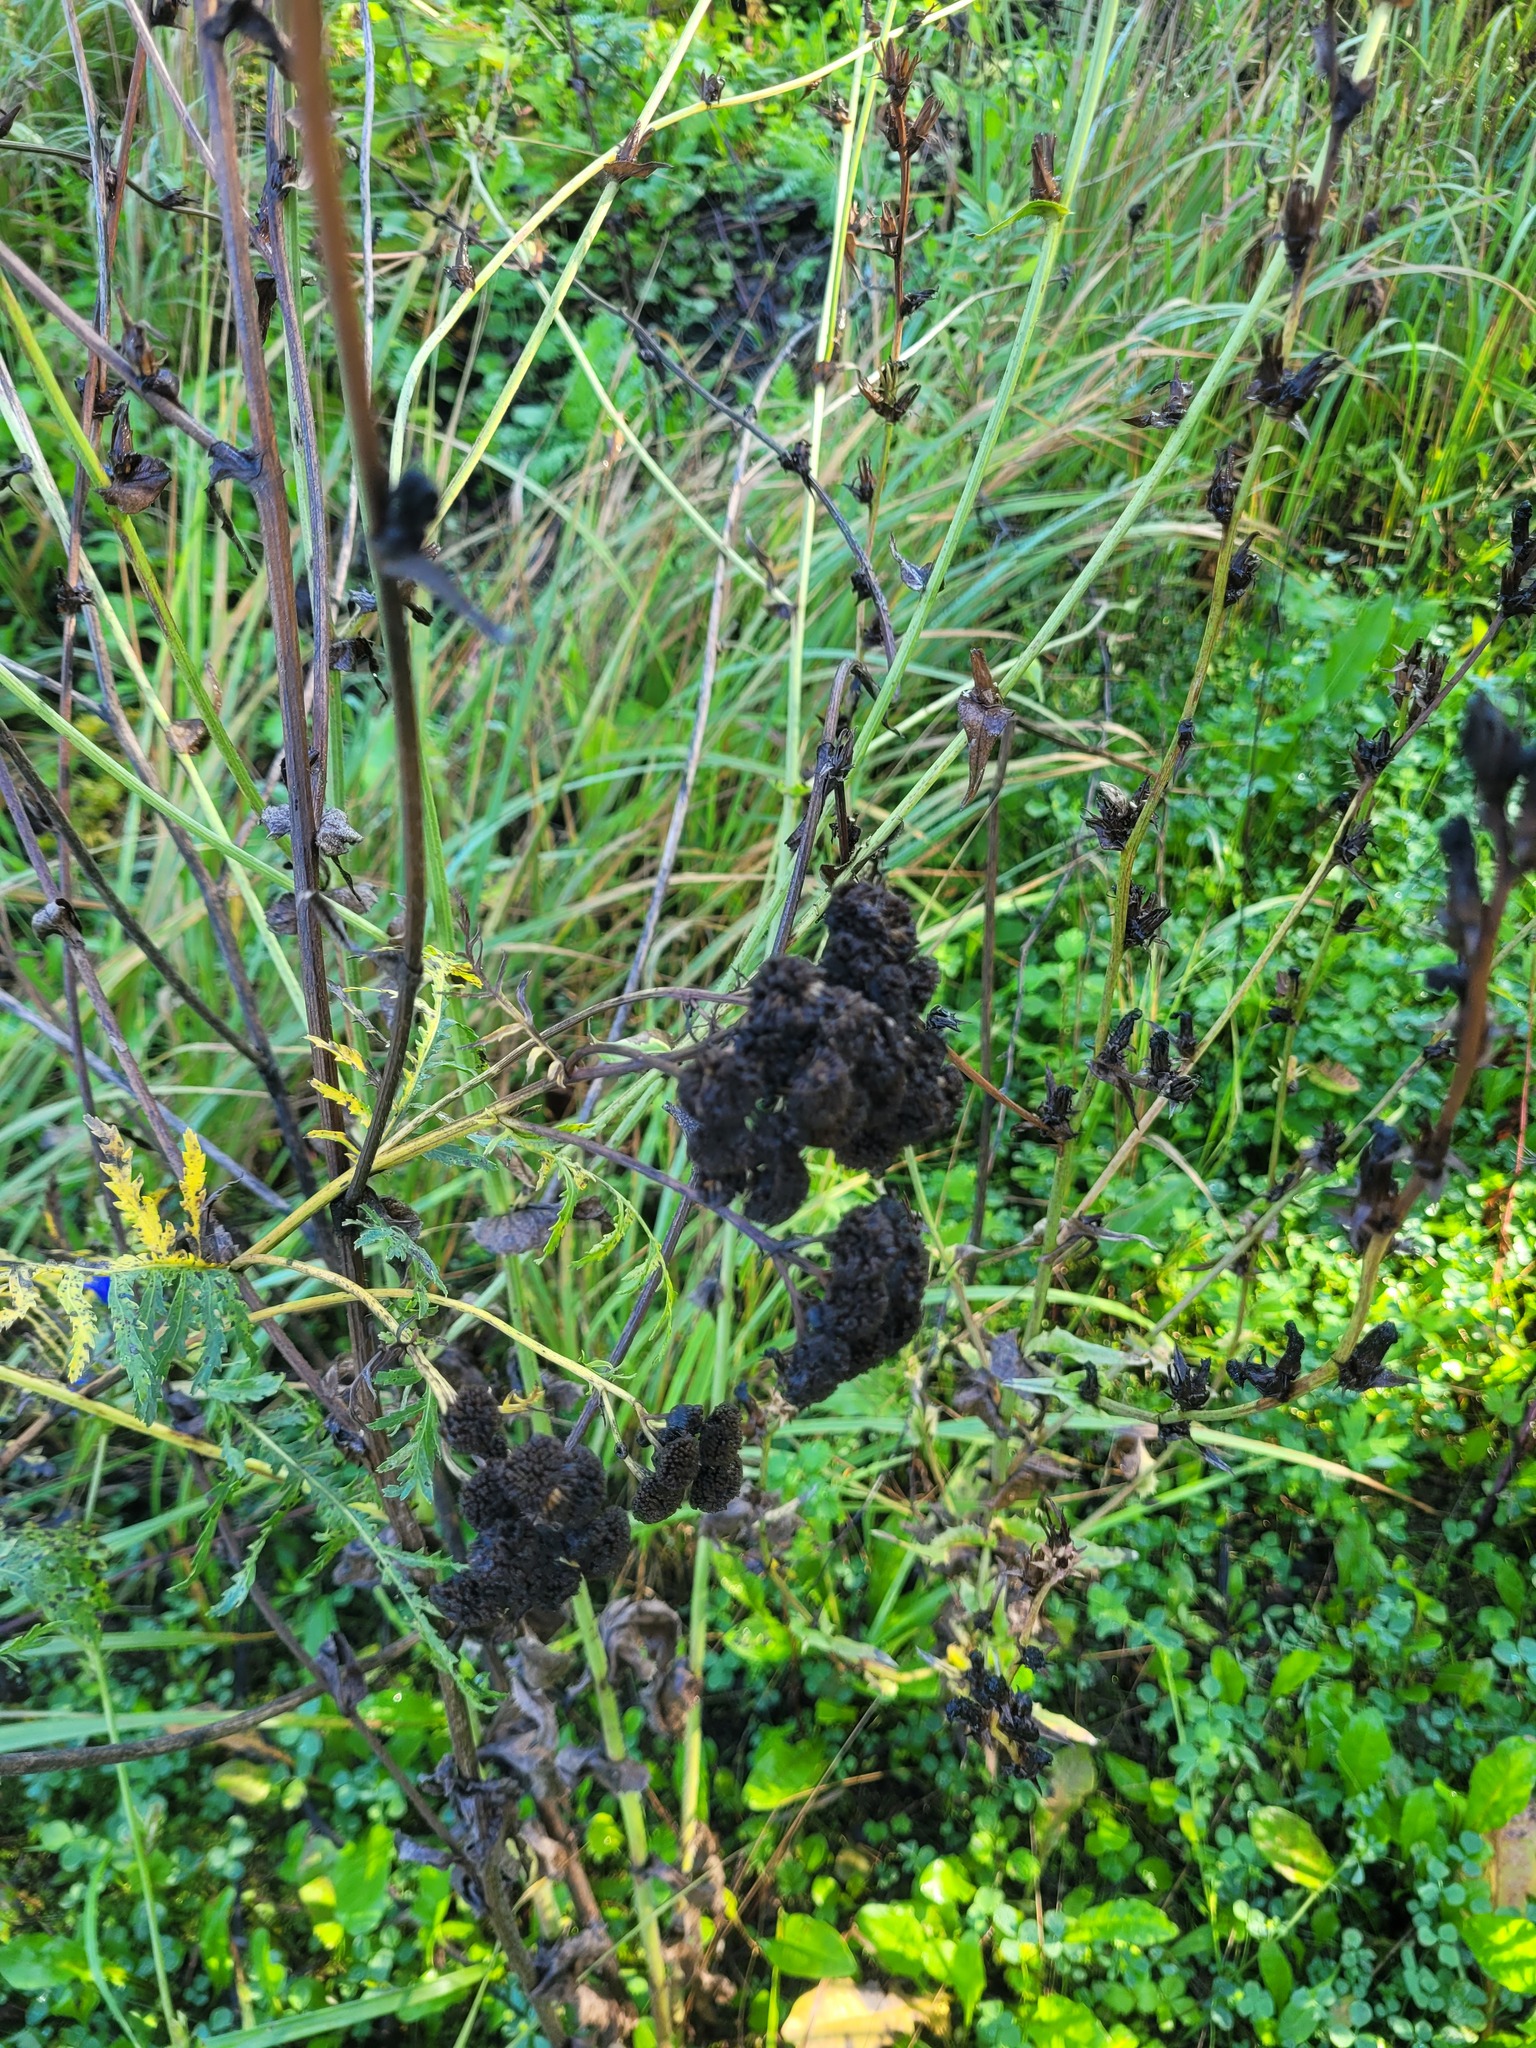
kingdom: Plantae
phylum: Tracheophyta
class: Magnoliopsida
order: Asterales
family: Asteraceae
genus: Tanacetum
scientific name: Tanacetum vulgare
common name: Common tansy
